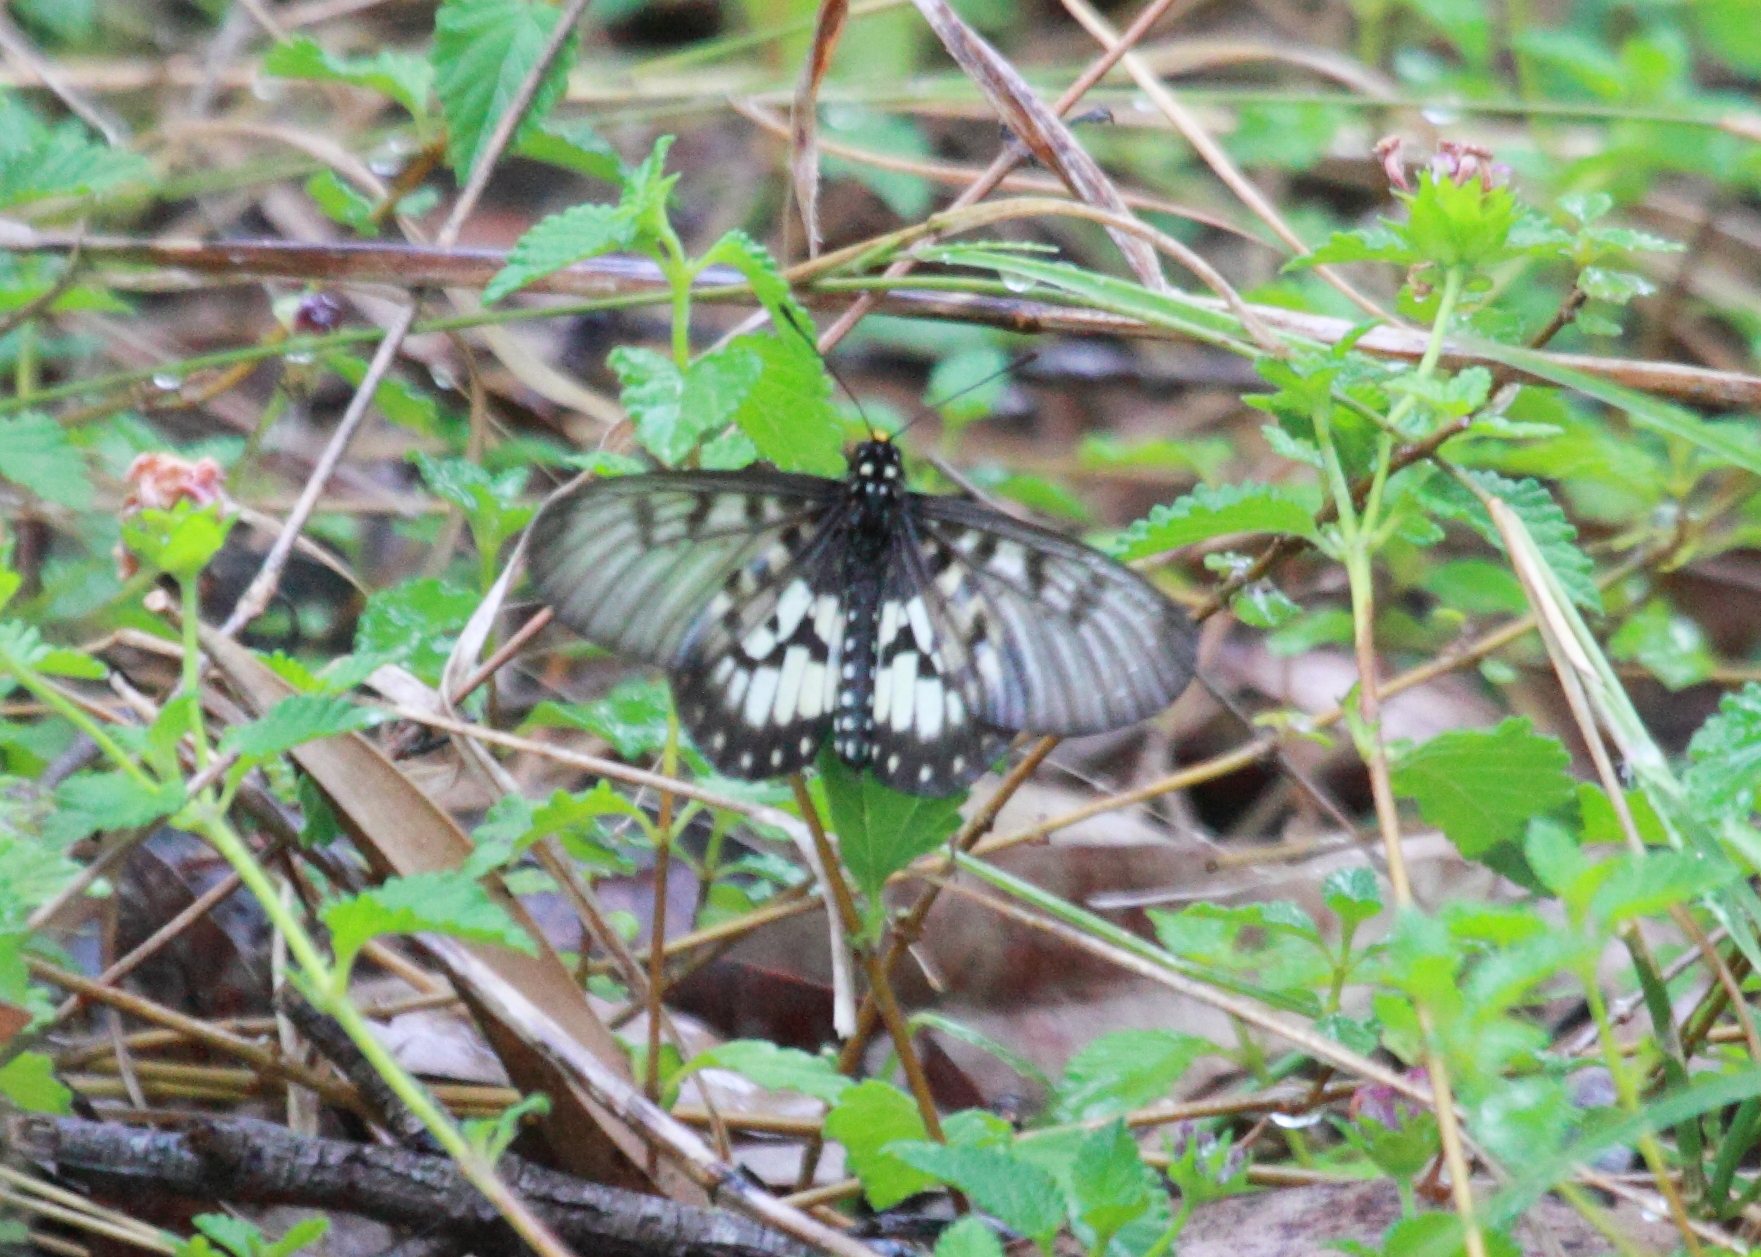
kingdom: Animalia
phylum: Arthropoda
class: Insecta
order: Lepidoptera
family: Nymphalidae
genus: Acraea
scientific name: Acraea andromacha
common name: Glasswing
